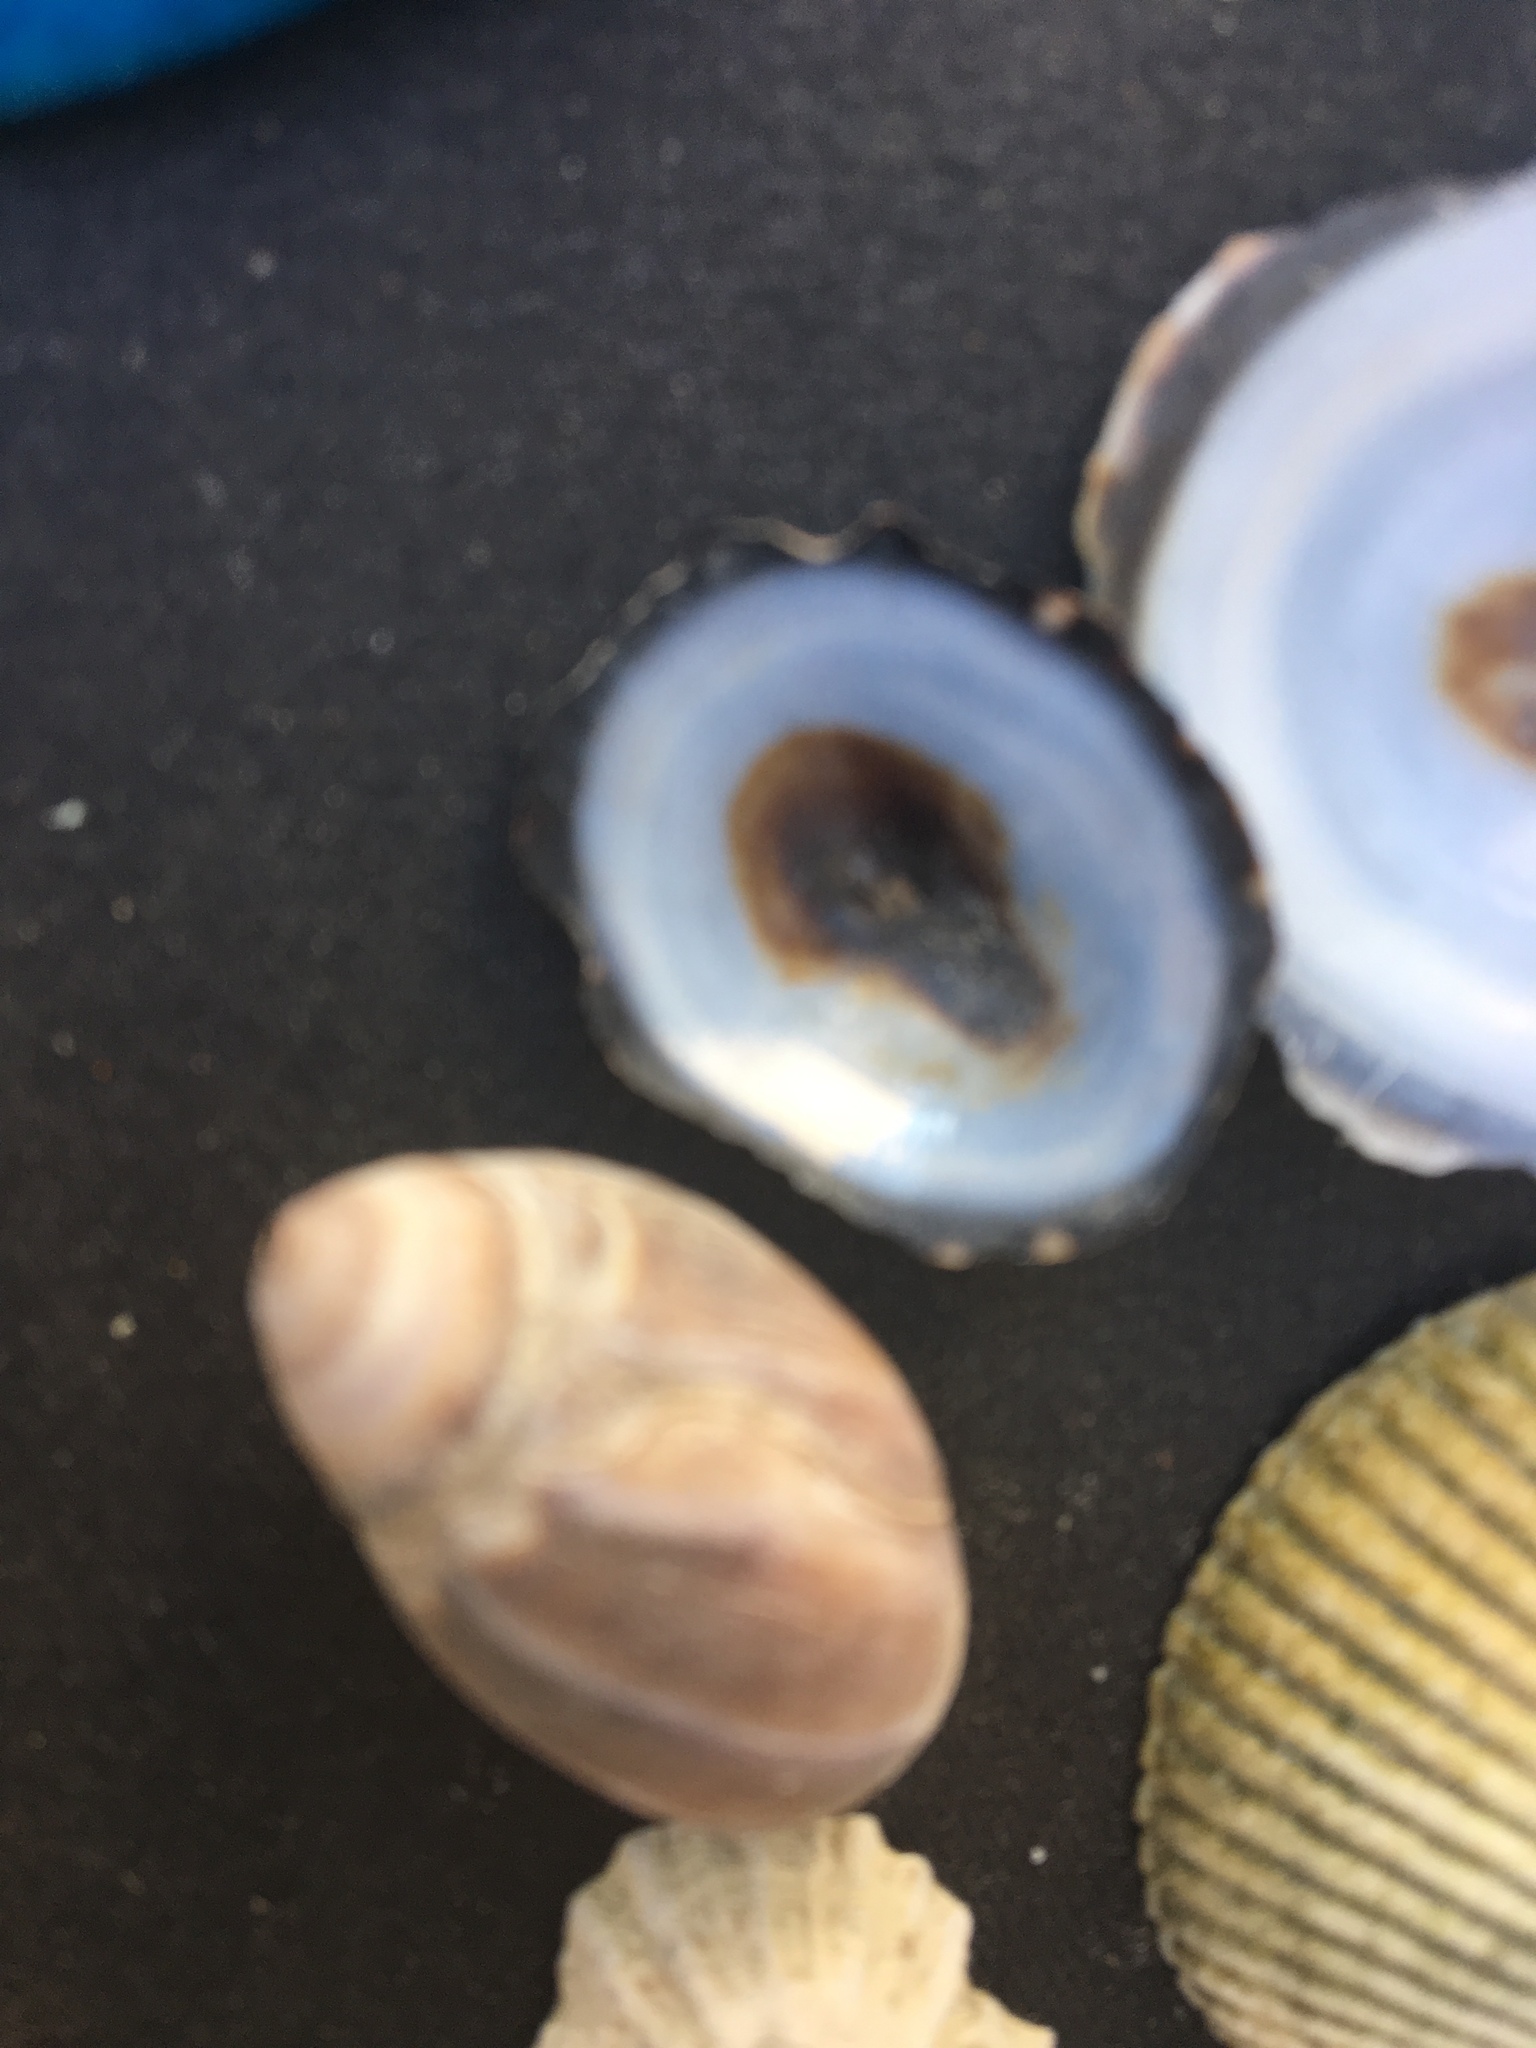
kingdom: Animalia
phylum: Mollusca
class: Gastropoda
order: Neogastropoda
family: Olividae
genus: Callianax
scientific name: Callianax biplicata
